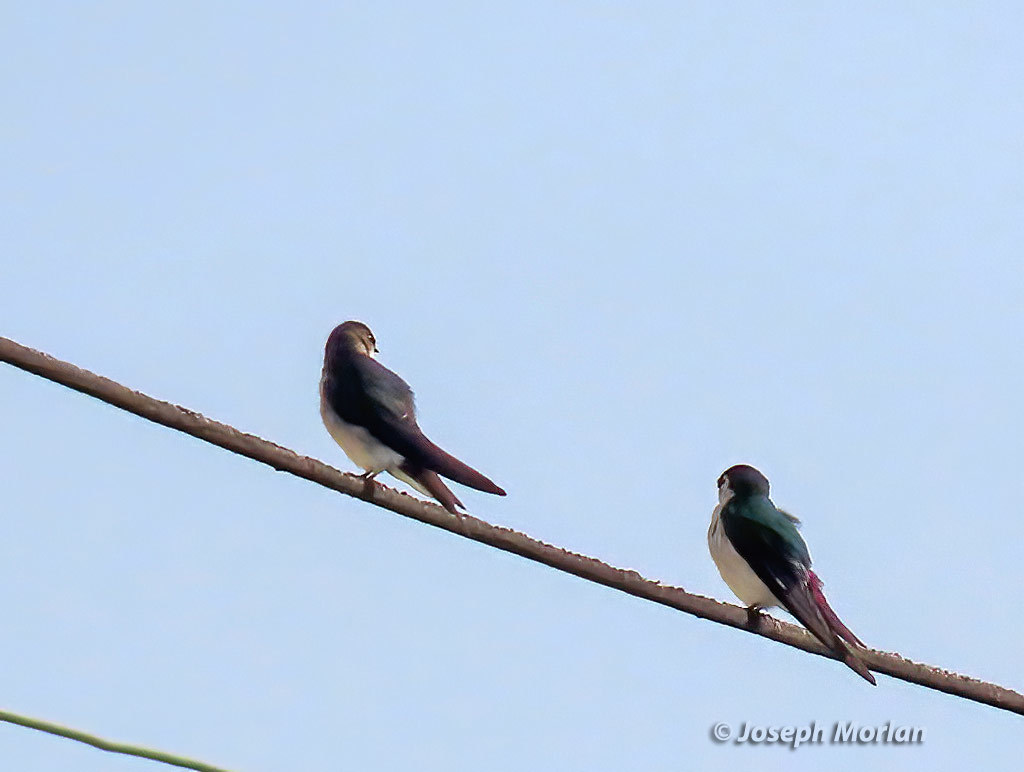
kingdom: Animalia
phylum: Chordata
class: Aves
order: Passeriformes
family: Hirundinidae
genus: Tachycineta
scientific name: Tachycineta thalassina
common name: Violet-green swallow
